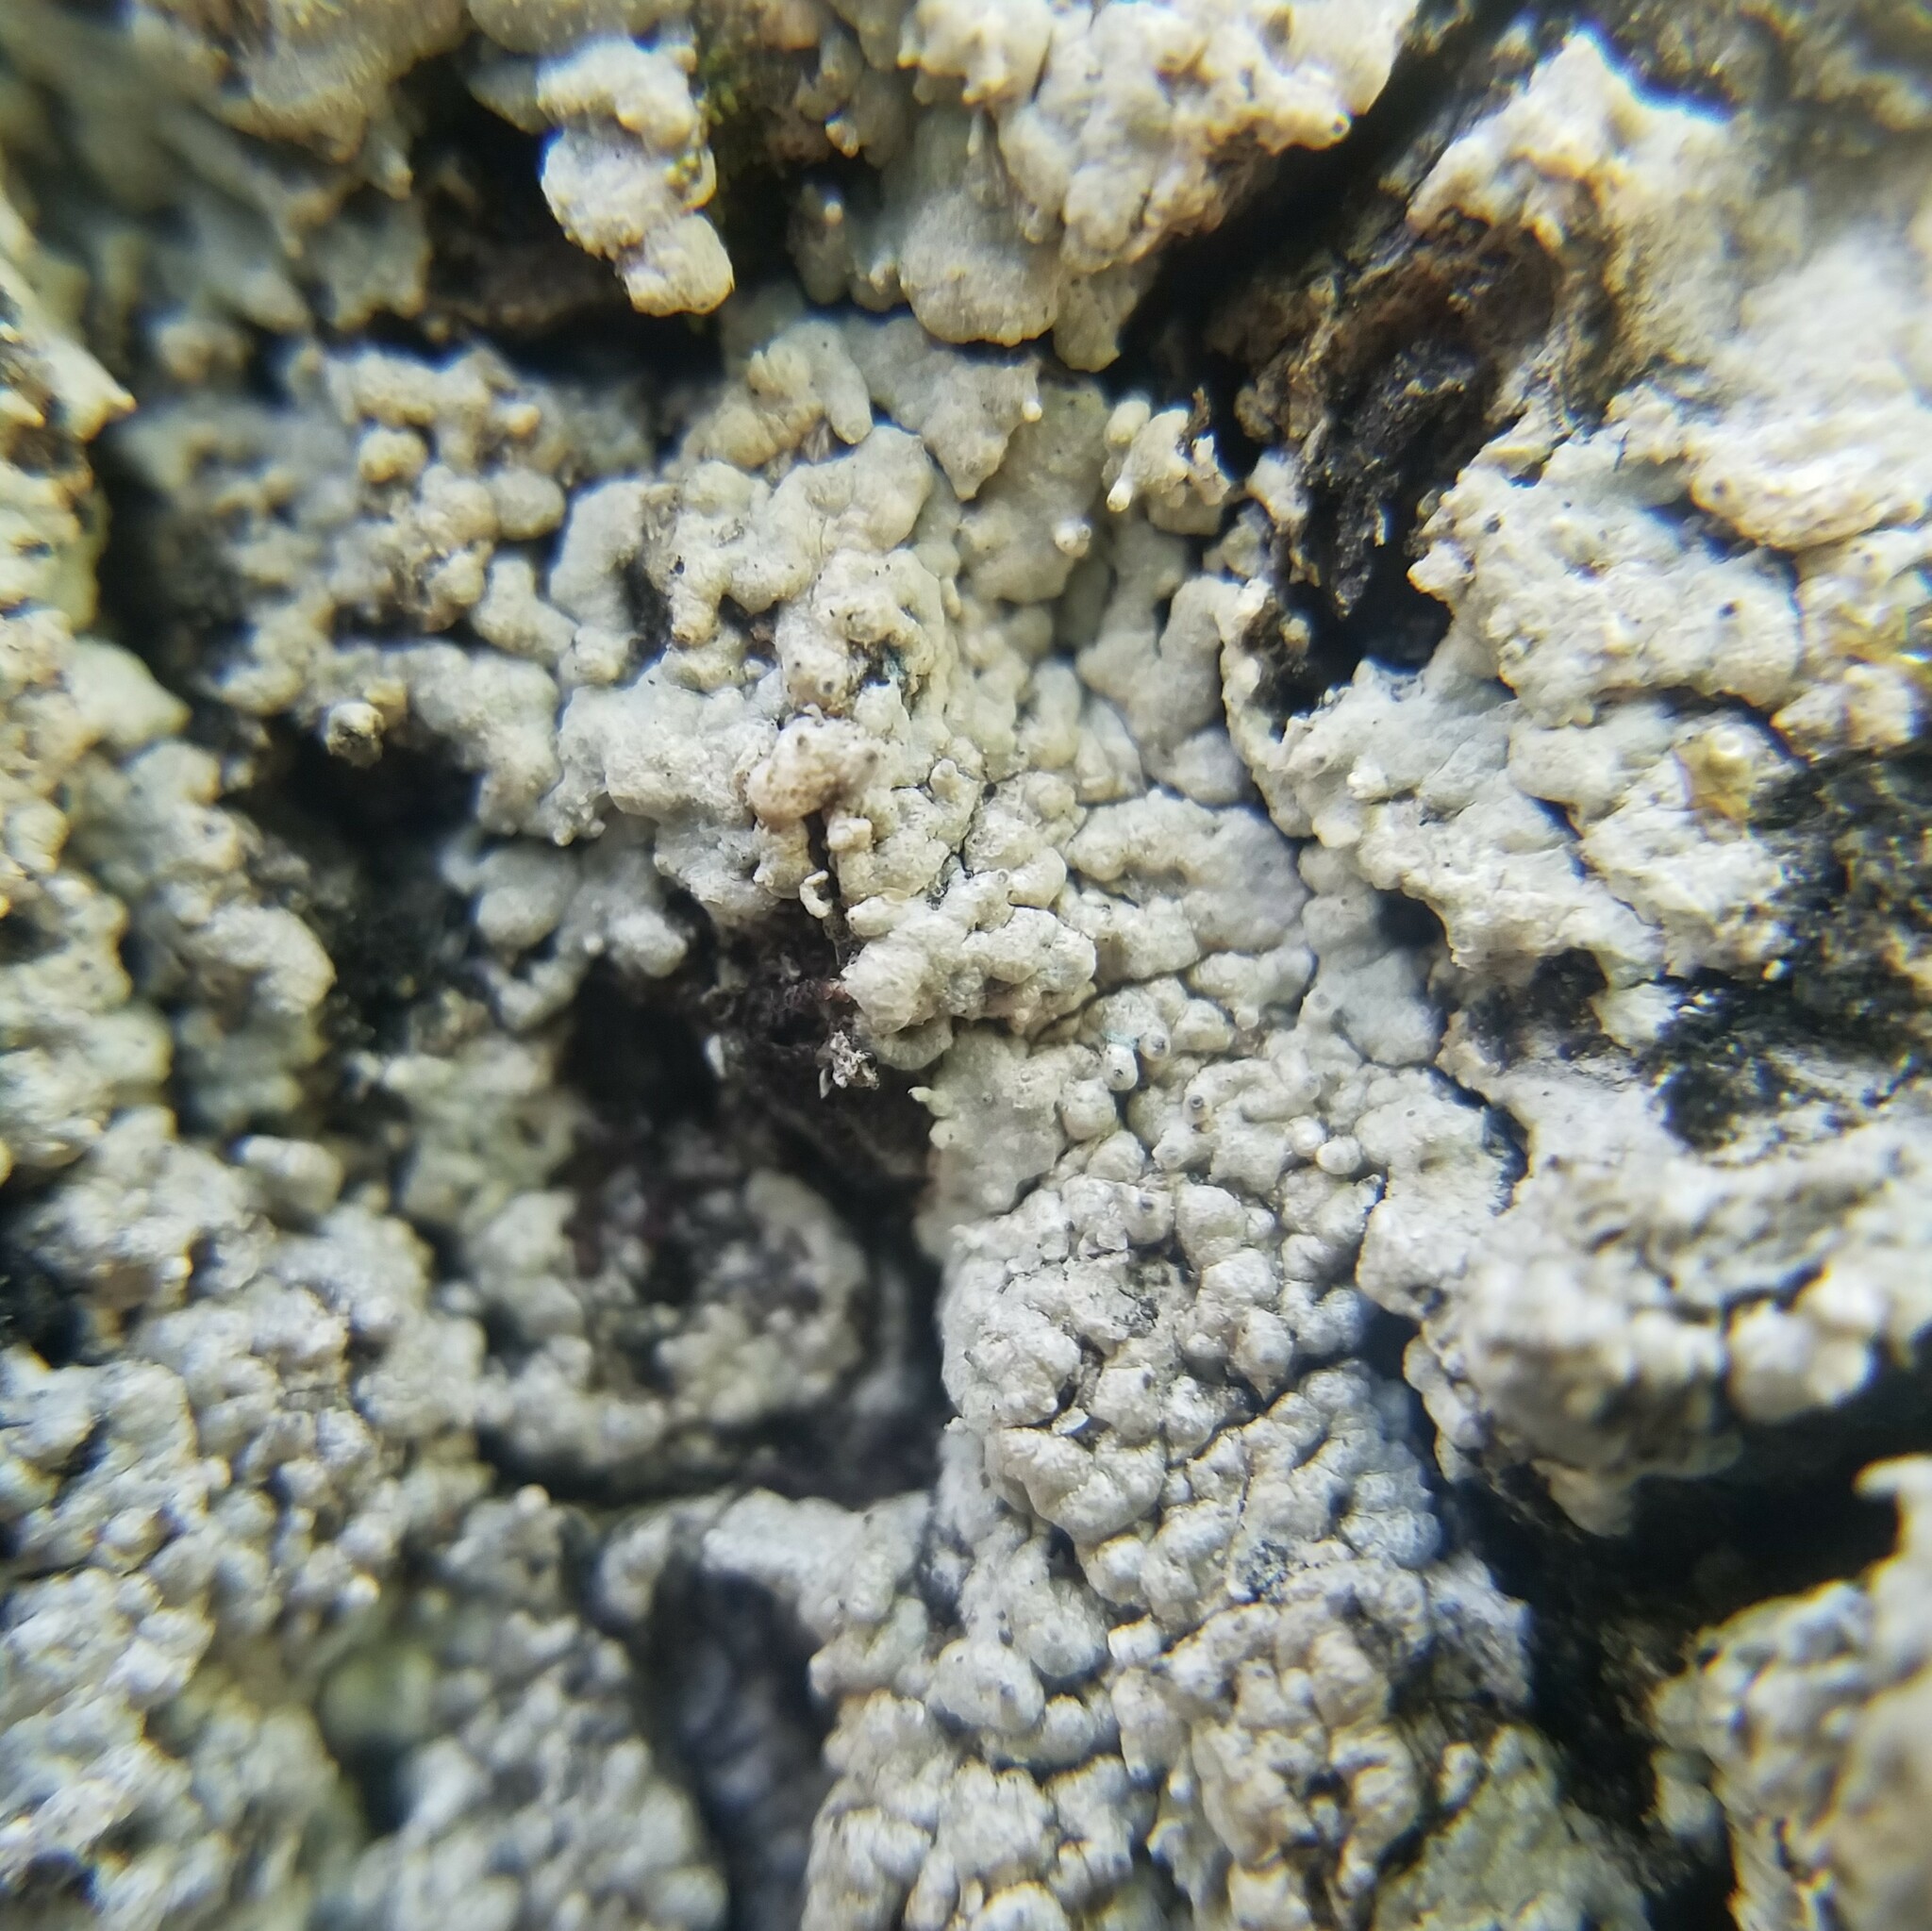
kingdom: Fungi
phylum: Ascomycota
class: Lecanoromycetes
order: Ostropales
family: Graphidaceae
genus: Reimnitzia
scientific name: Reimnitzia santensis
